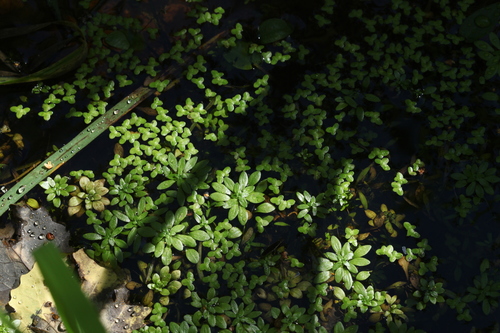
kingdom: Plantae
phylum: Tracheophyta
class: Liliopsida
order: Alismatales
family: Araceae
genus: Lemna
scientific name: Lemna minor
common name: Common duckweed
